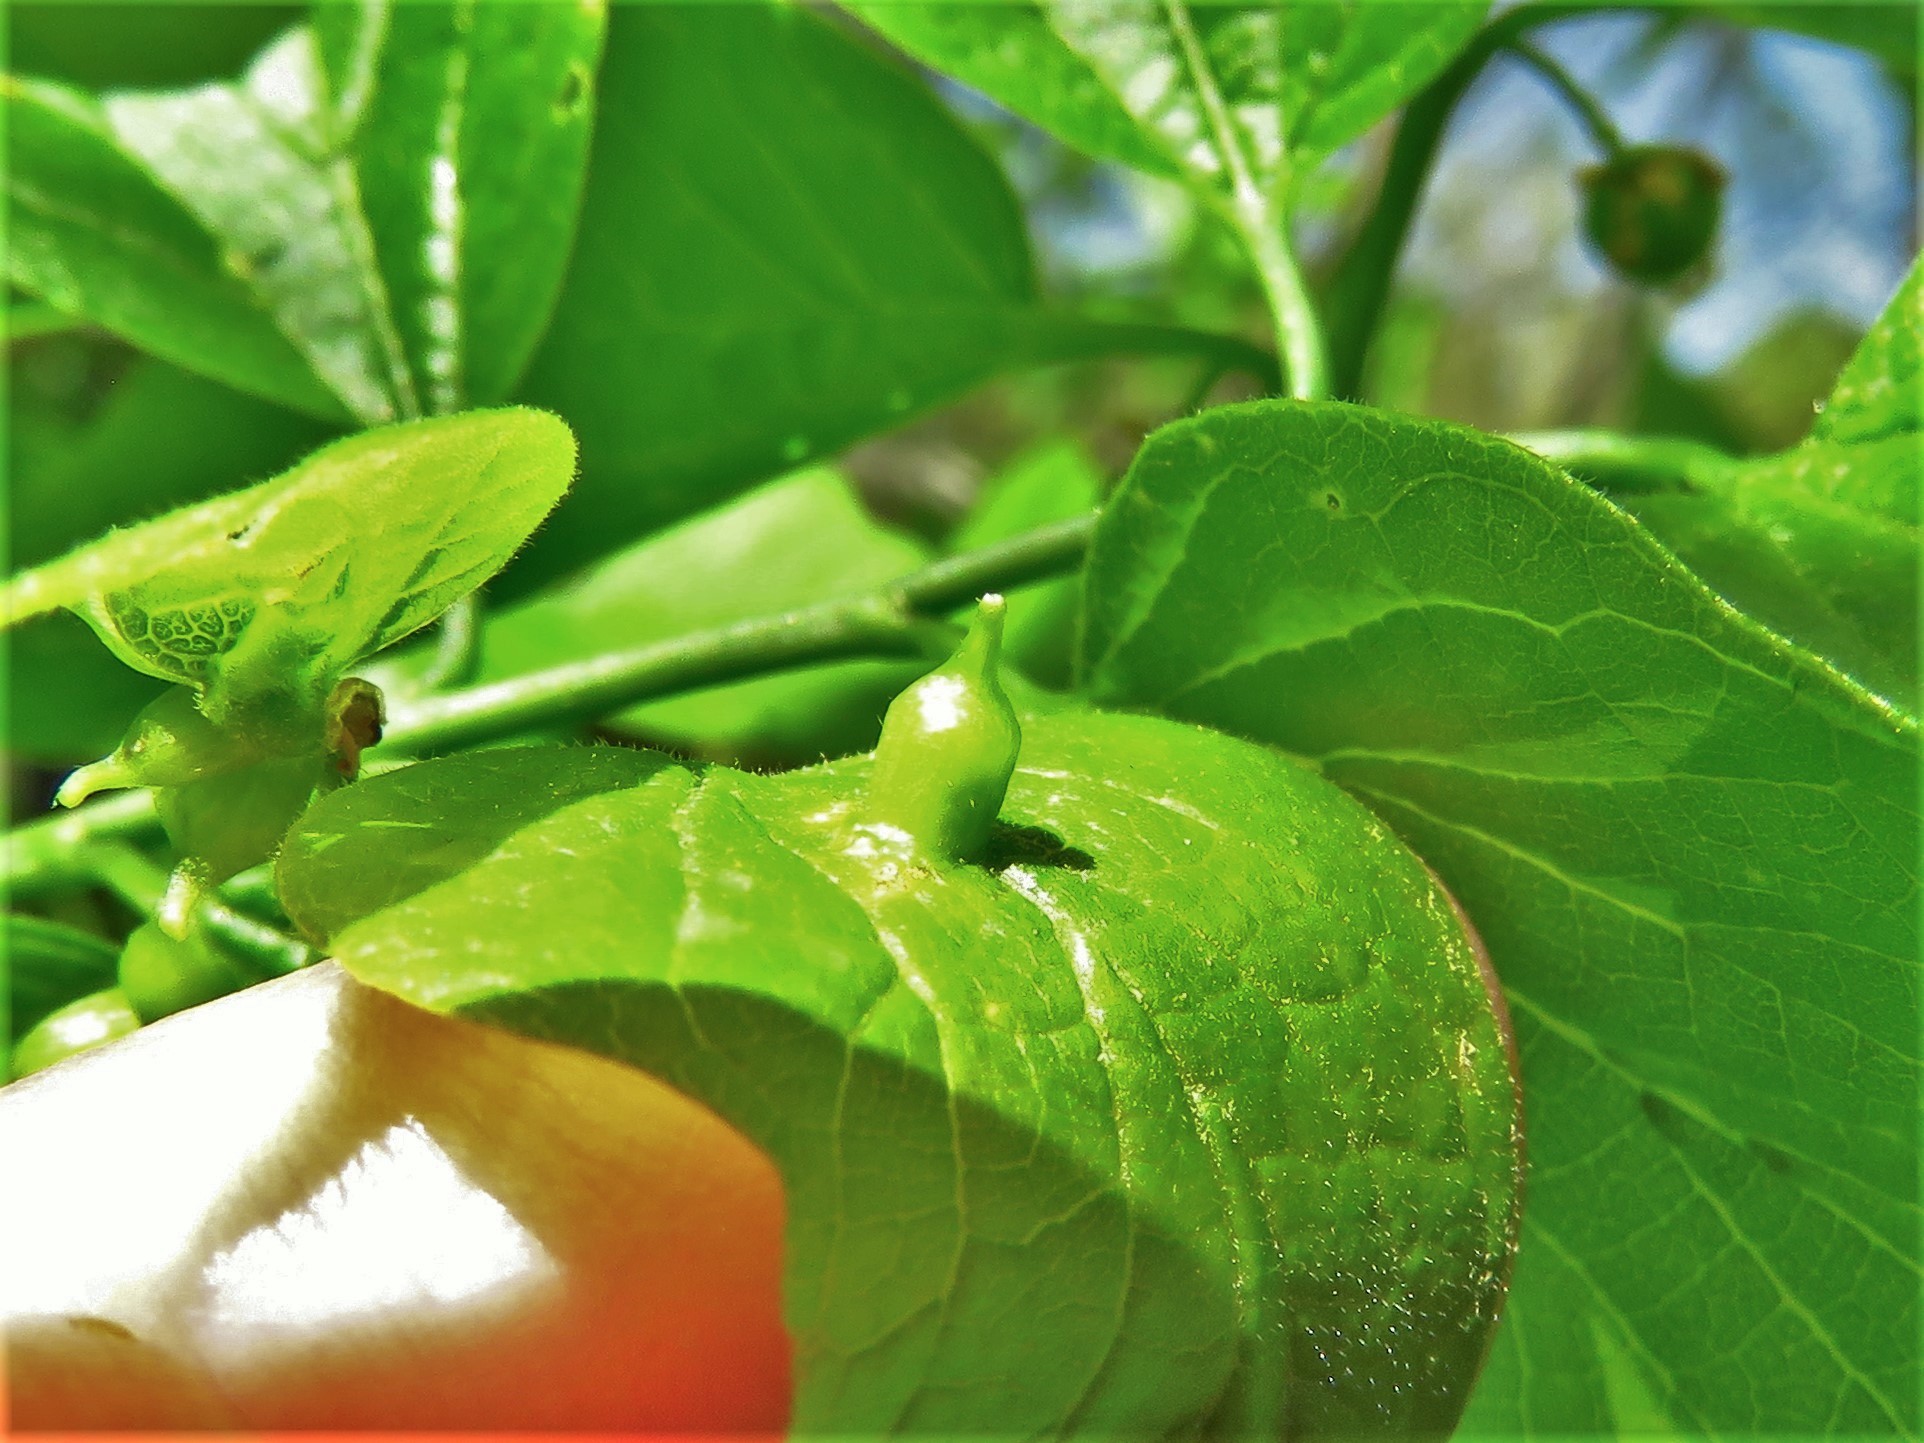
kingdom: Animalia
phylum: Arthropoda
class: Insecta
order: Diptera
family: Cecidomyiidae
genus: Celticecis
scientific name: Celticecis ramicola
